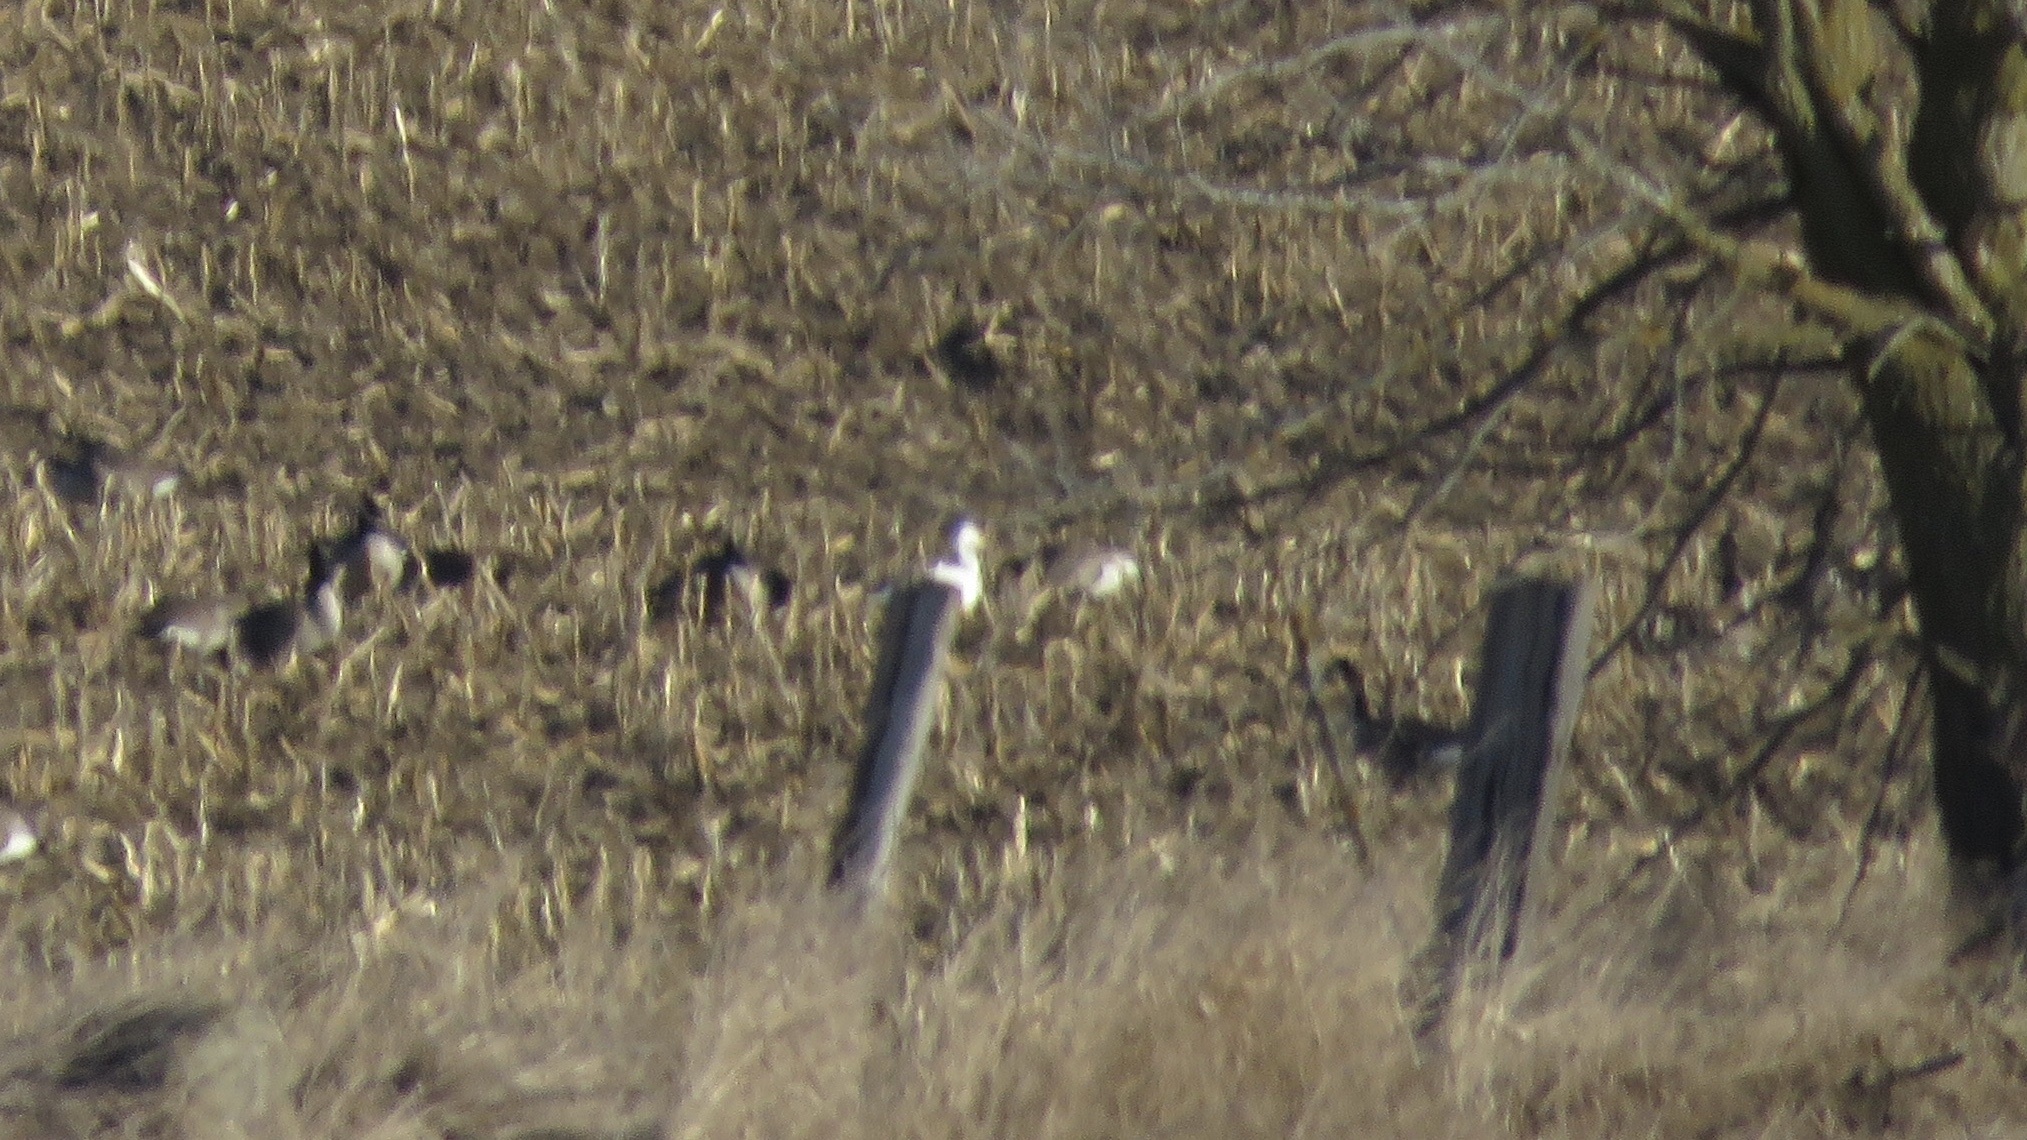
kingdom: Animalia
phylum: Chordata
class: Aves
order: Anseriformes
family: Anatidae
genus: Anser
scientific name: Anser caerulescens
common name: Snow goose
